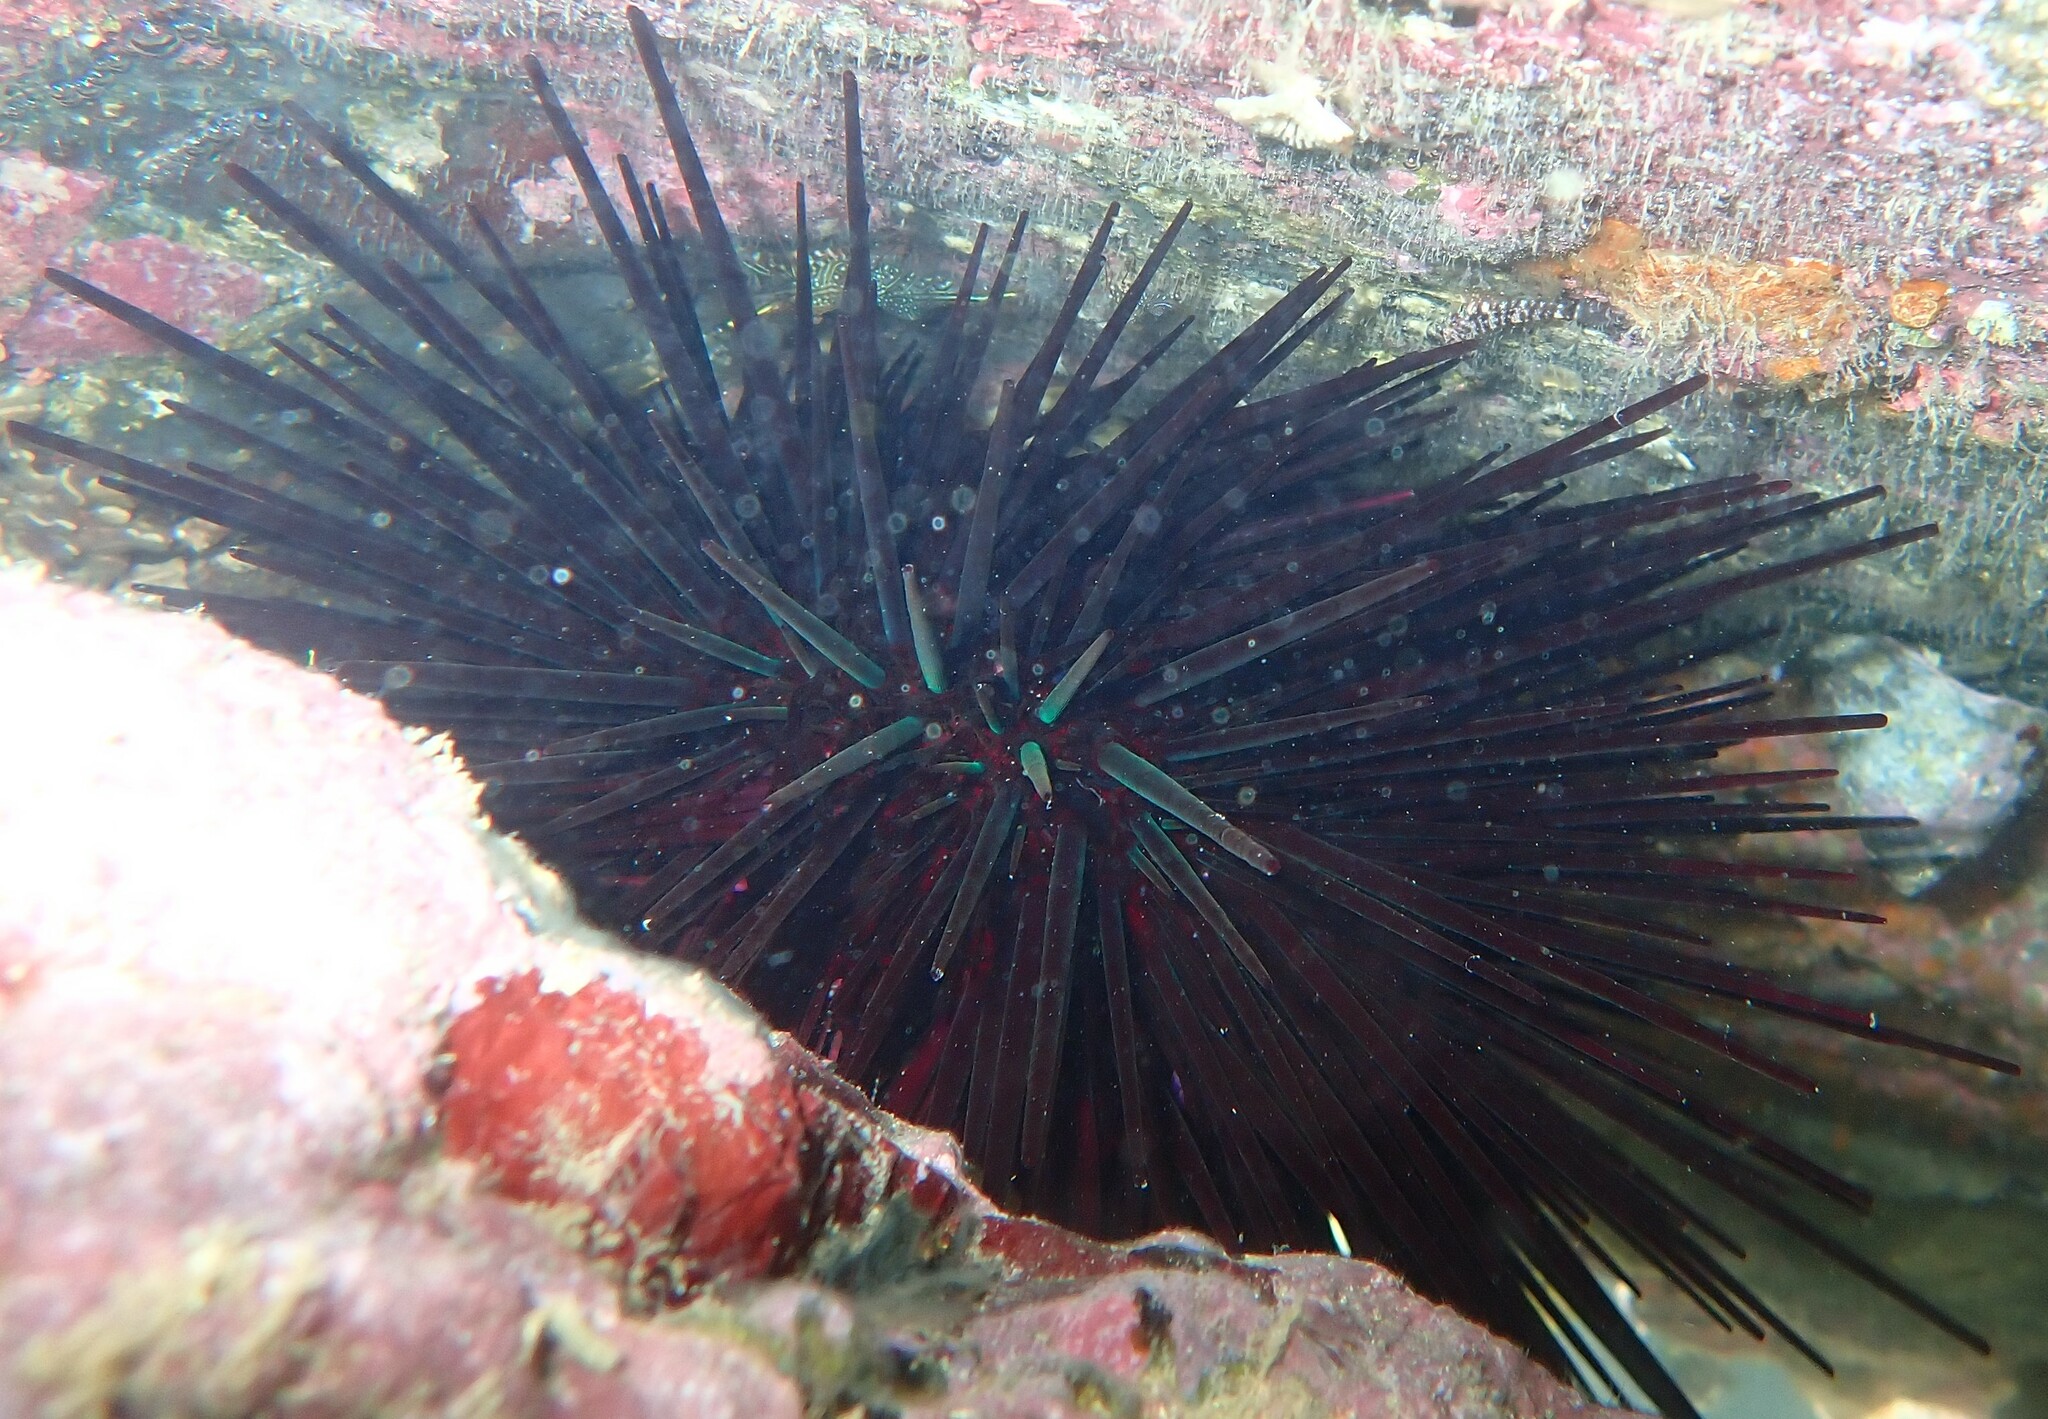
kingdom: Animalia
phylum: Echinodermata
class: Echinoidea
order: Diadematoida
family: Diadematidae
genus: Centrostephanus
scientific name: Centrostephanus rodgersii
